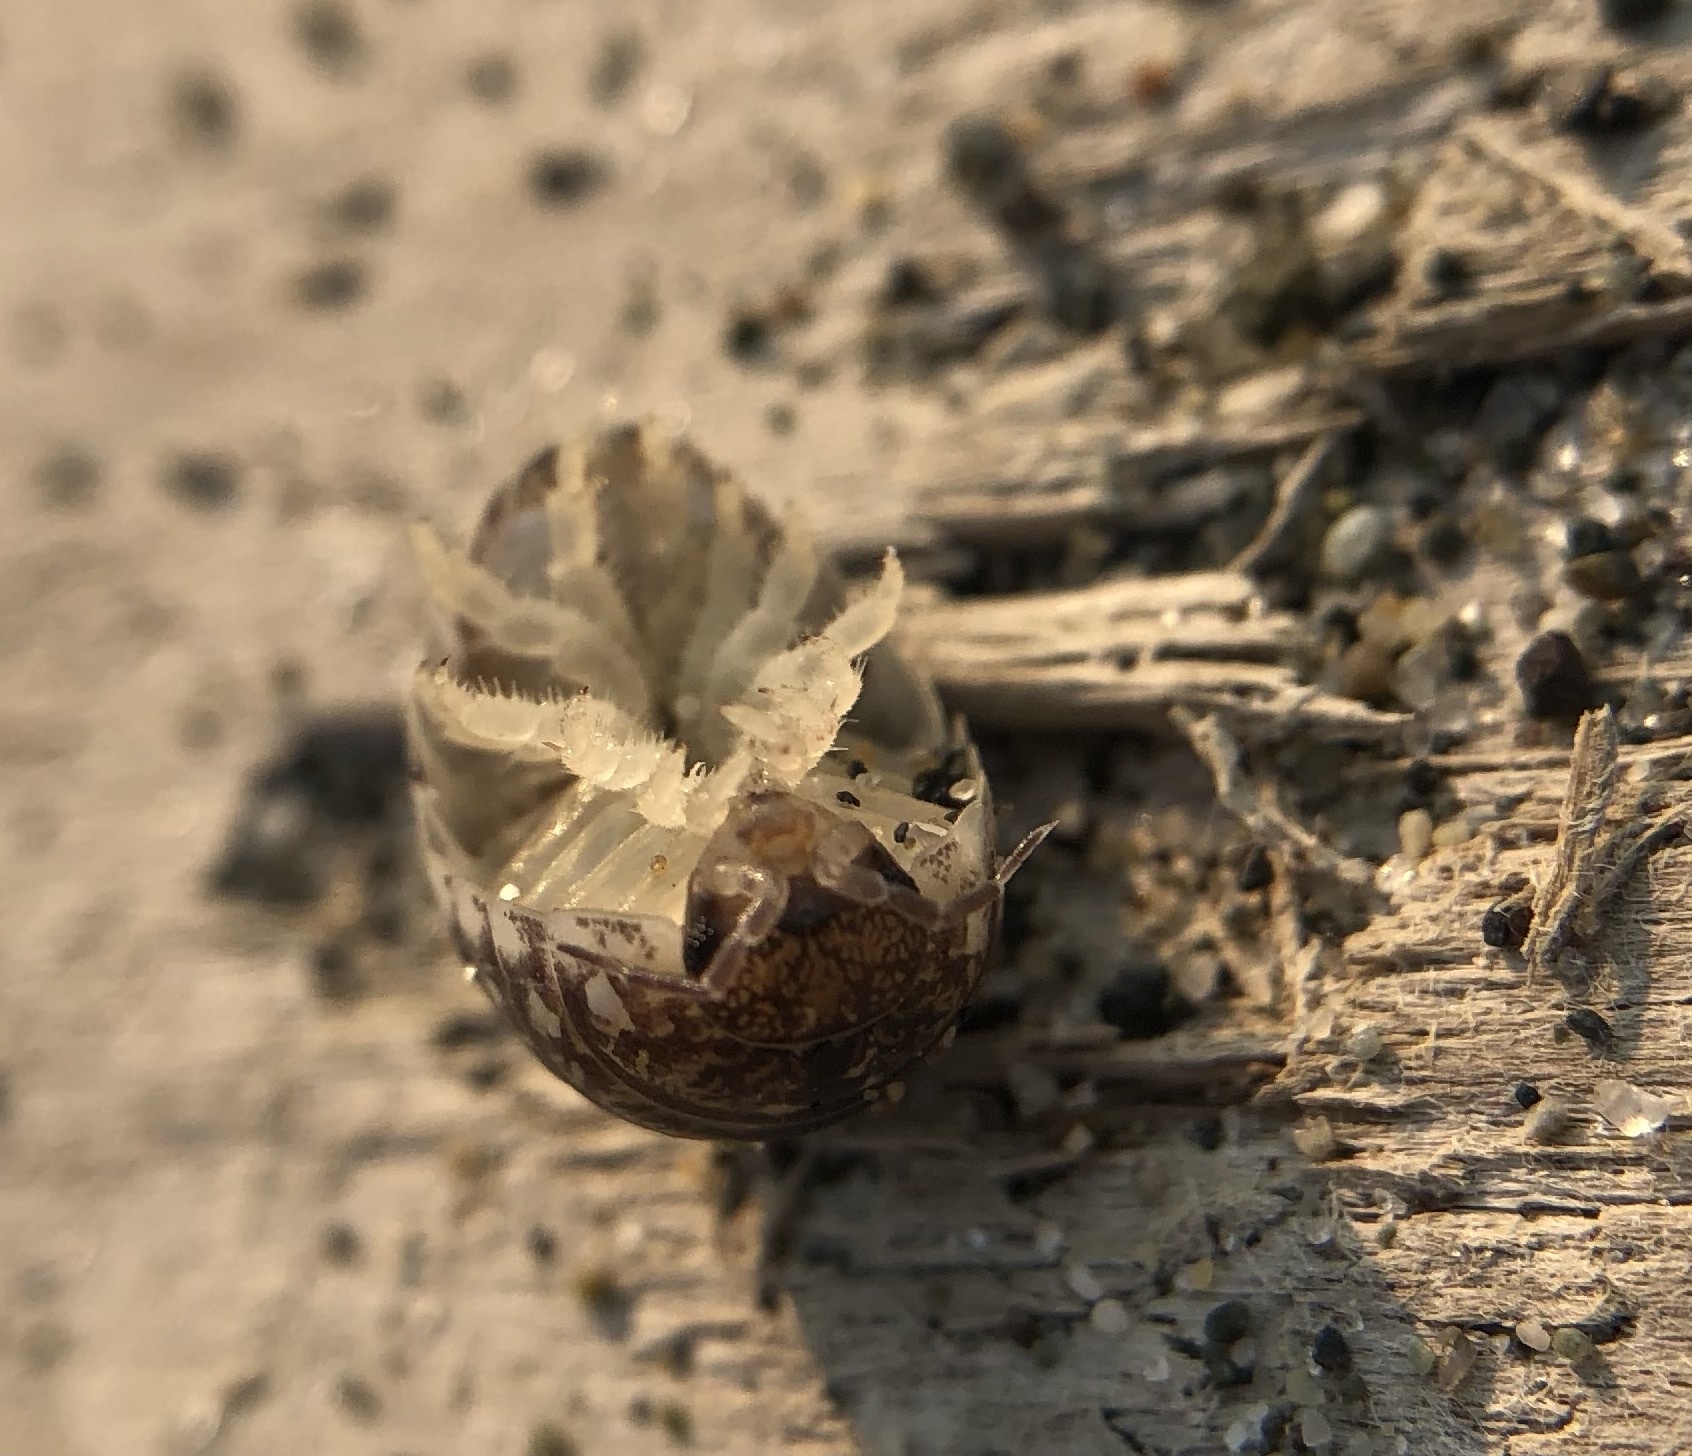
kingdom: Animalia
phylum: Arthropoda
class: Malacostraca
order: Isopoda
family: Alloniscidae
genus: Alloniscus
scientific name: Alloniscus perconvexus
